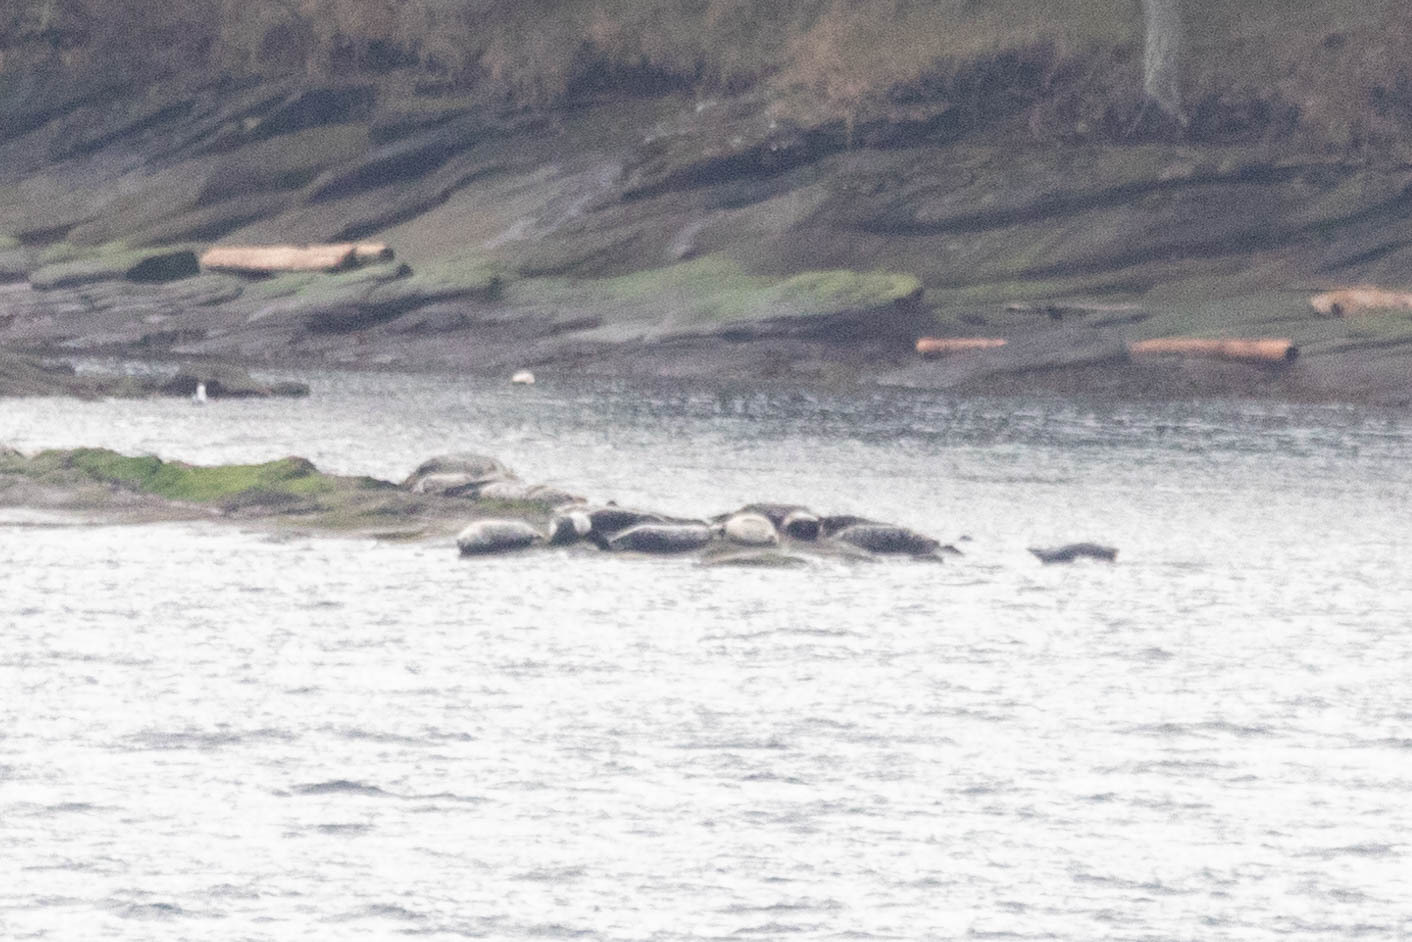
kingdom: Animalia
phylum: Chordata
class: Mammalia
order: Carnivora
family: Phocidae
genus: Phoca
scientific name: Phoca vitulina
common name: Harbor seal
